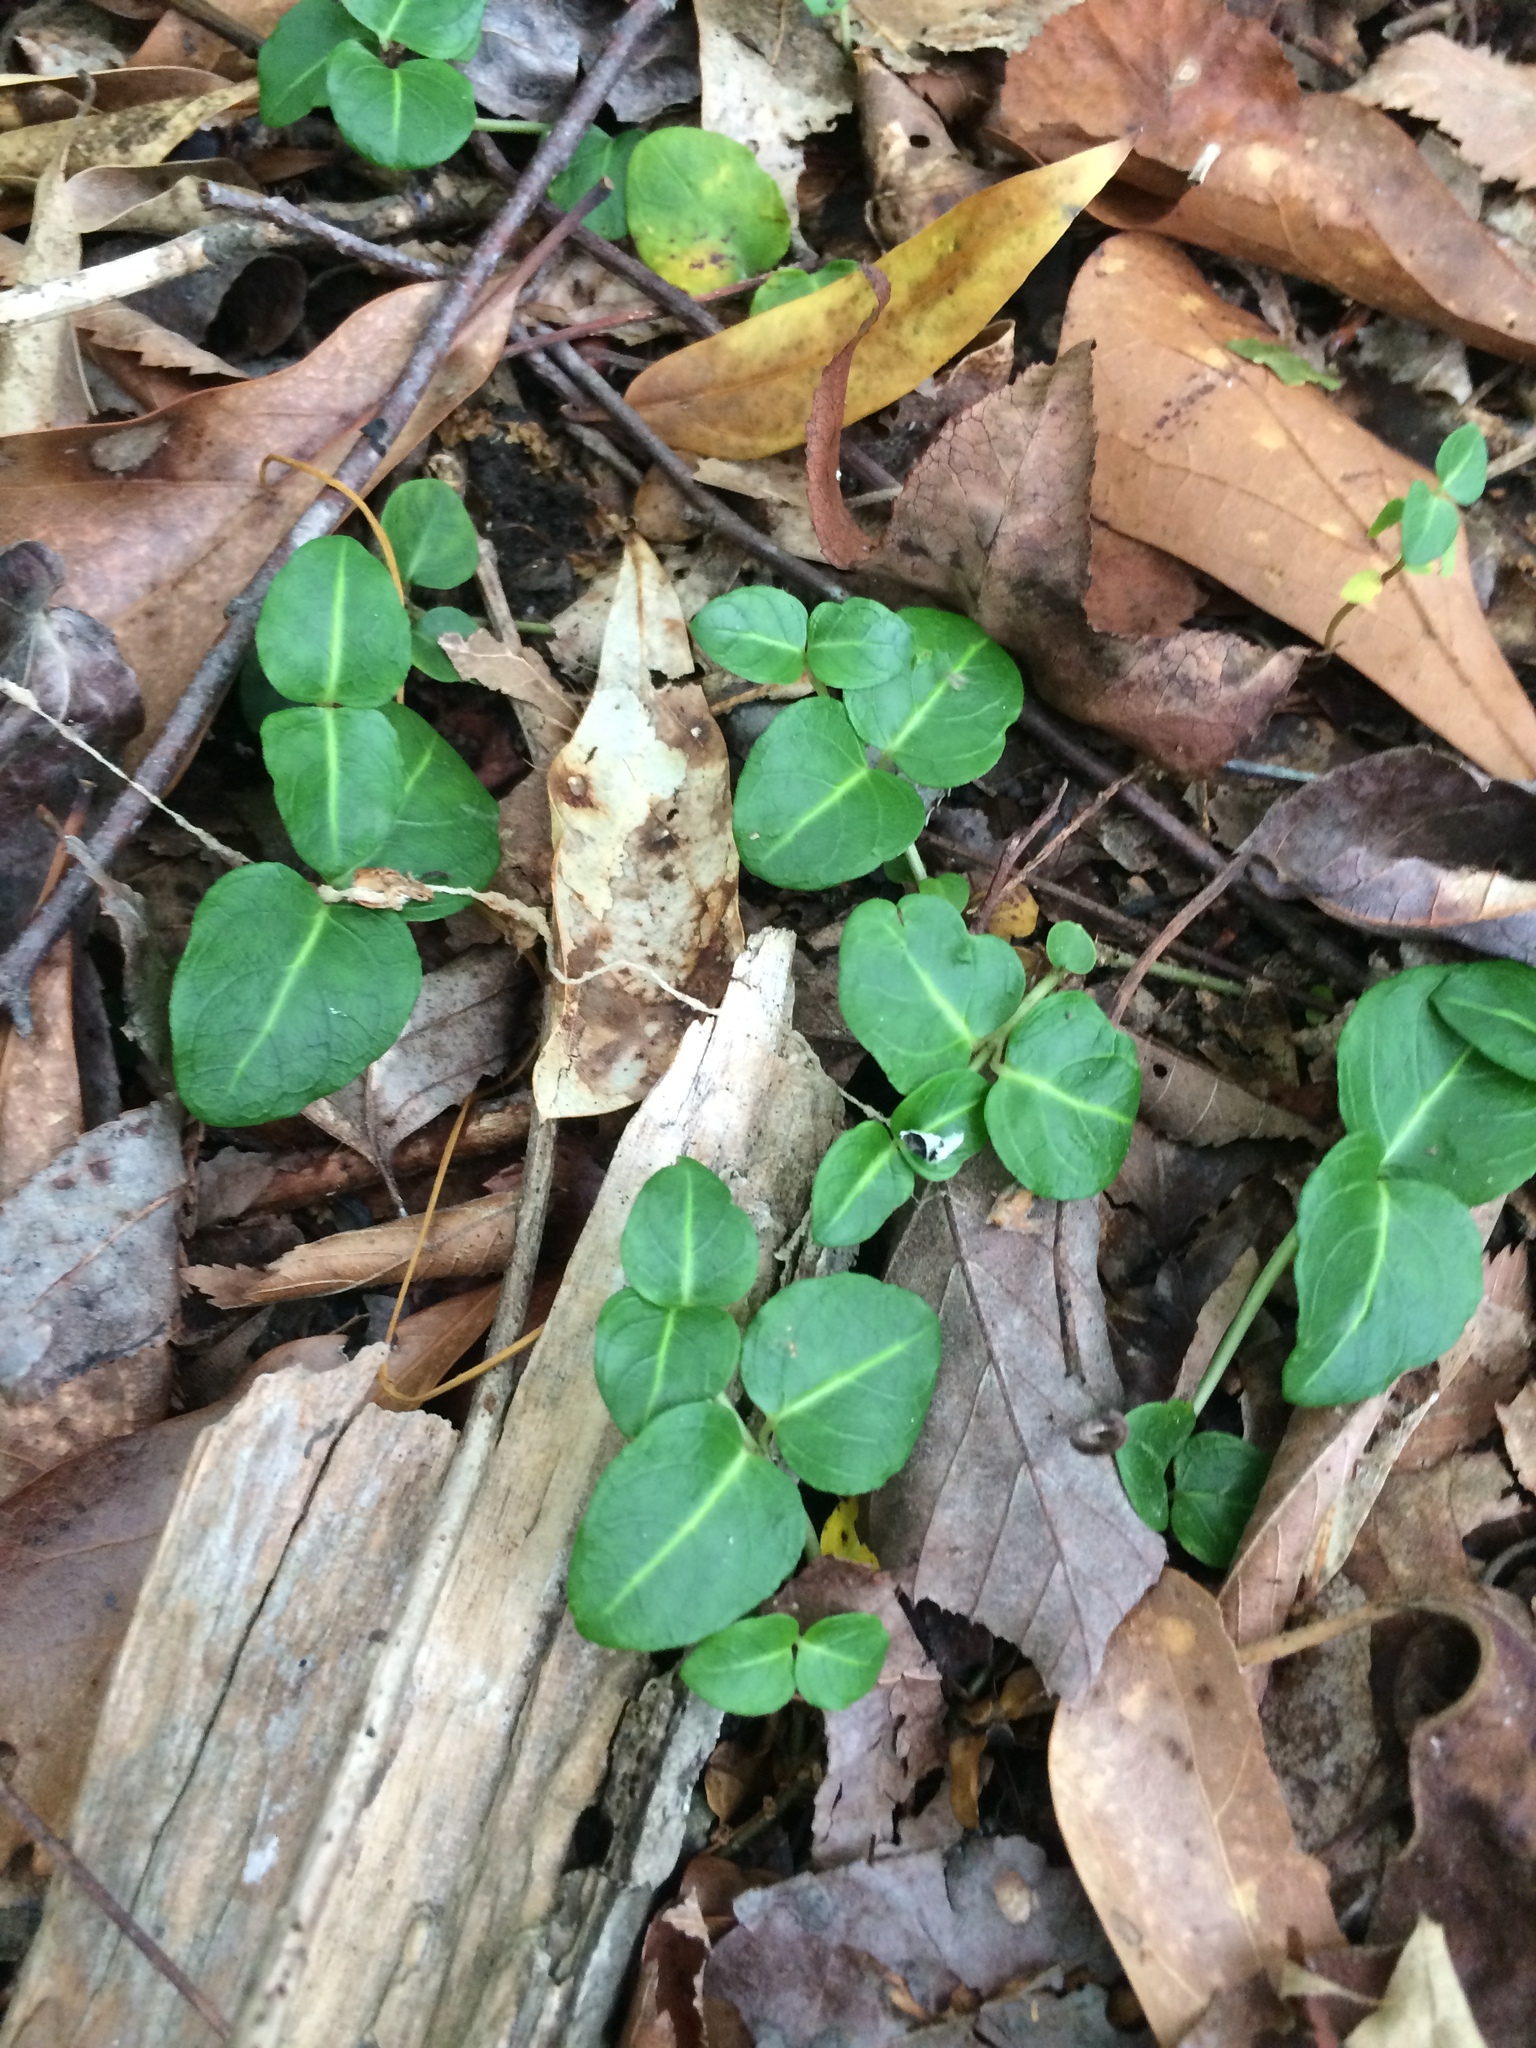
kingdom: Plantae
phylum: Tracheophyta
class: Magnoliopsida
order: Gentianales
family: Rubiaceae
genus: Mitchella
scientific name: Mitchella repens
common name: Partridge-berry
